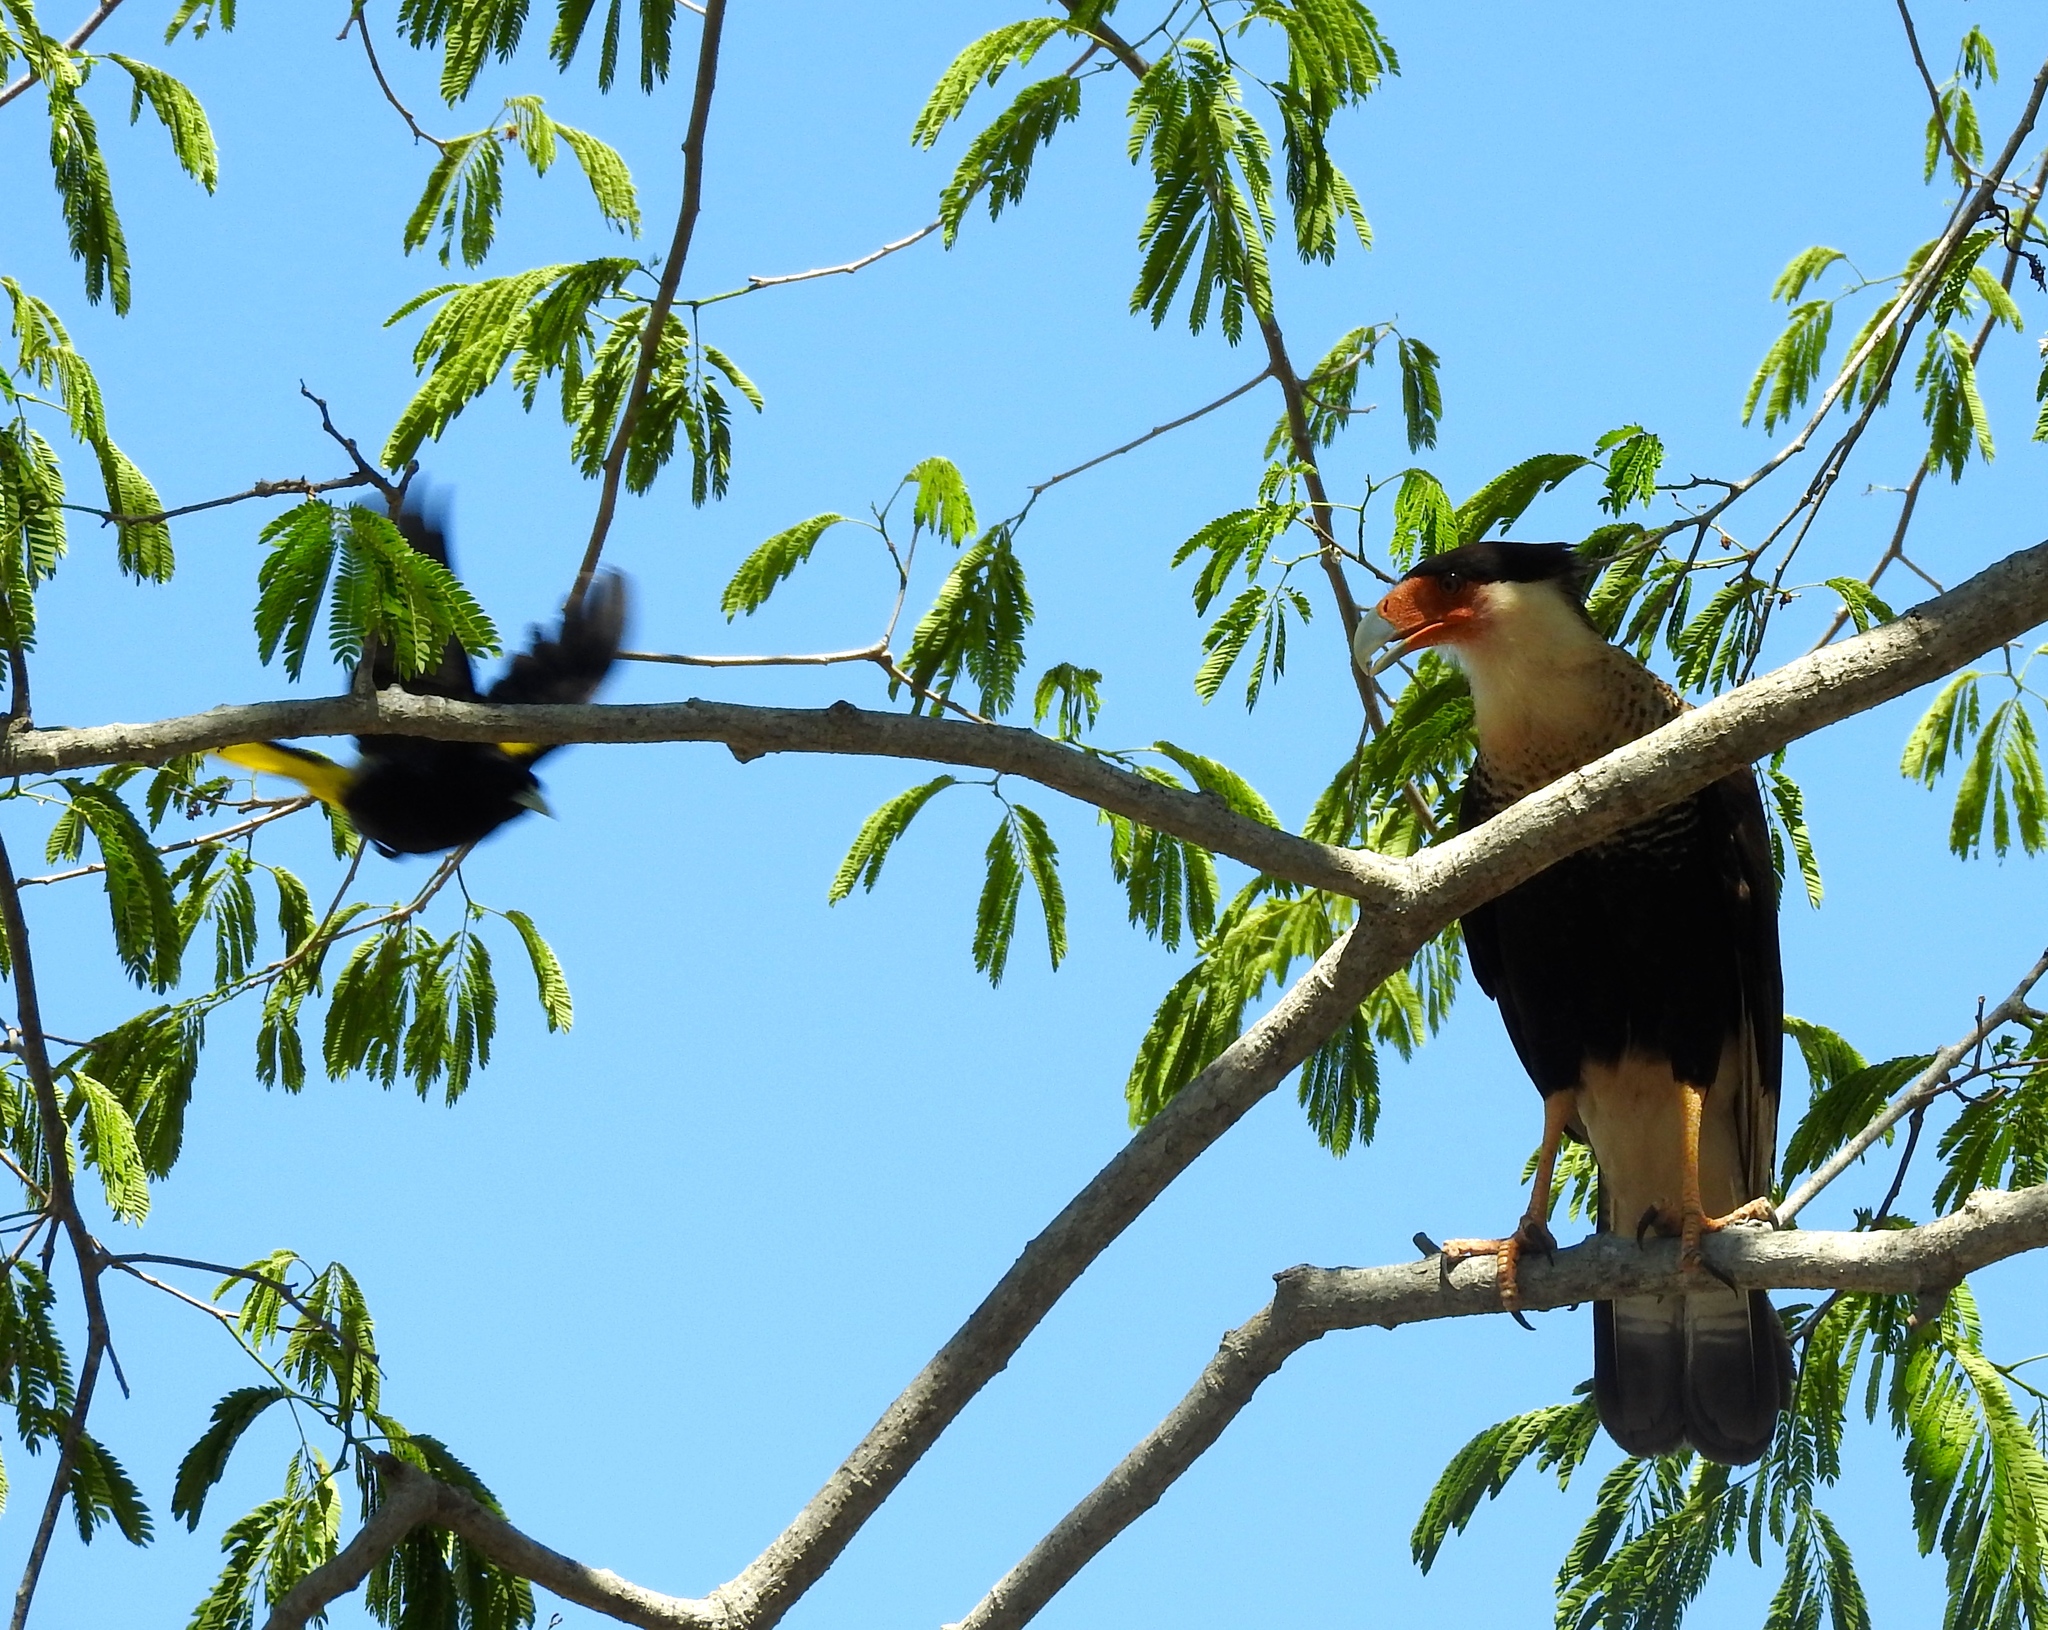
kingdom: Animalia
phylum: Chordata
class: Aves
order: Falconiformes
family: Falconidae
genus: Caracara
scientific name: Caracara plancus
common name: Southern caracara
